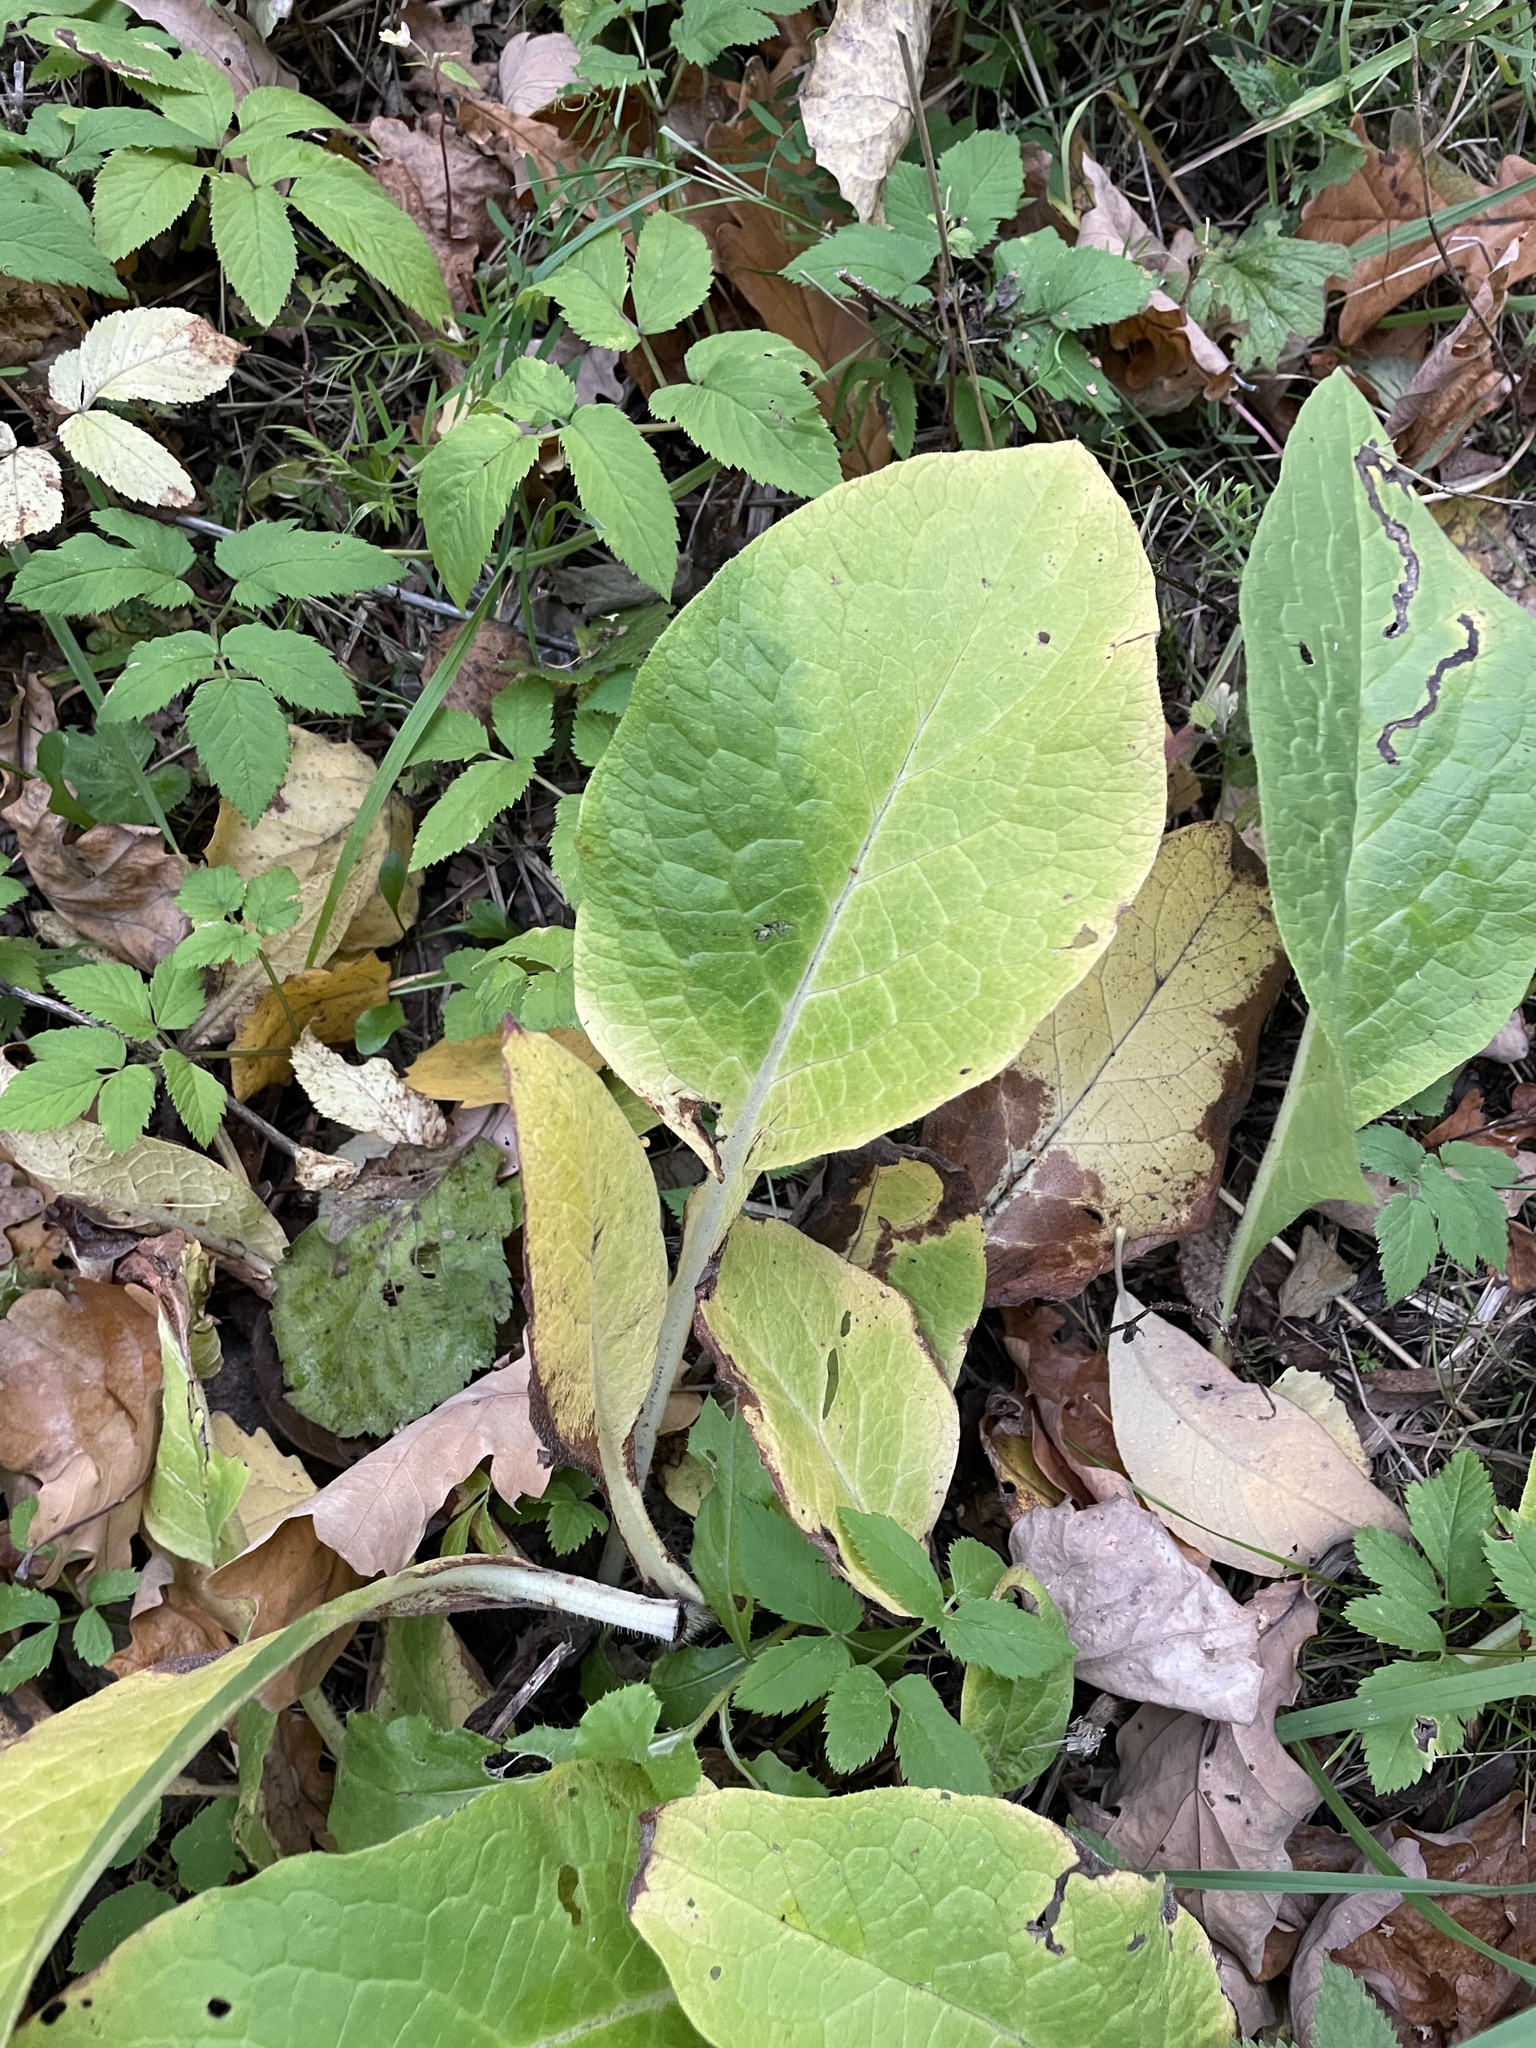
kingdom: Plantae
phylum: Tracheophyta
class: Magnoliopsida
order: Boraginales
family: Boraginaceae
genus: Symphytum
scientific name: Symphytum
